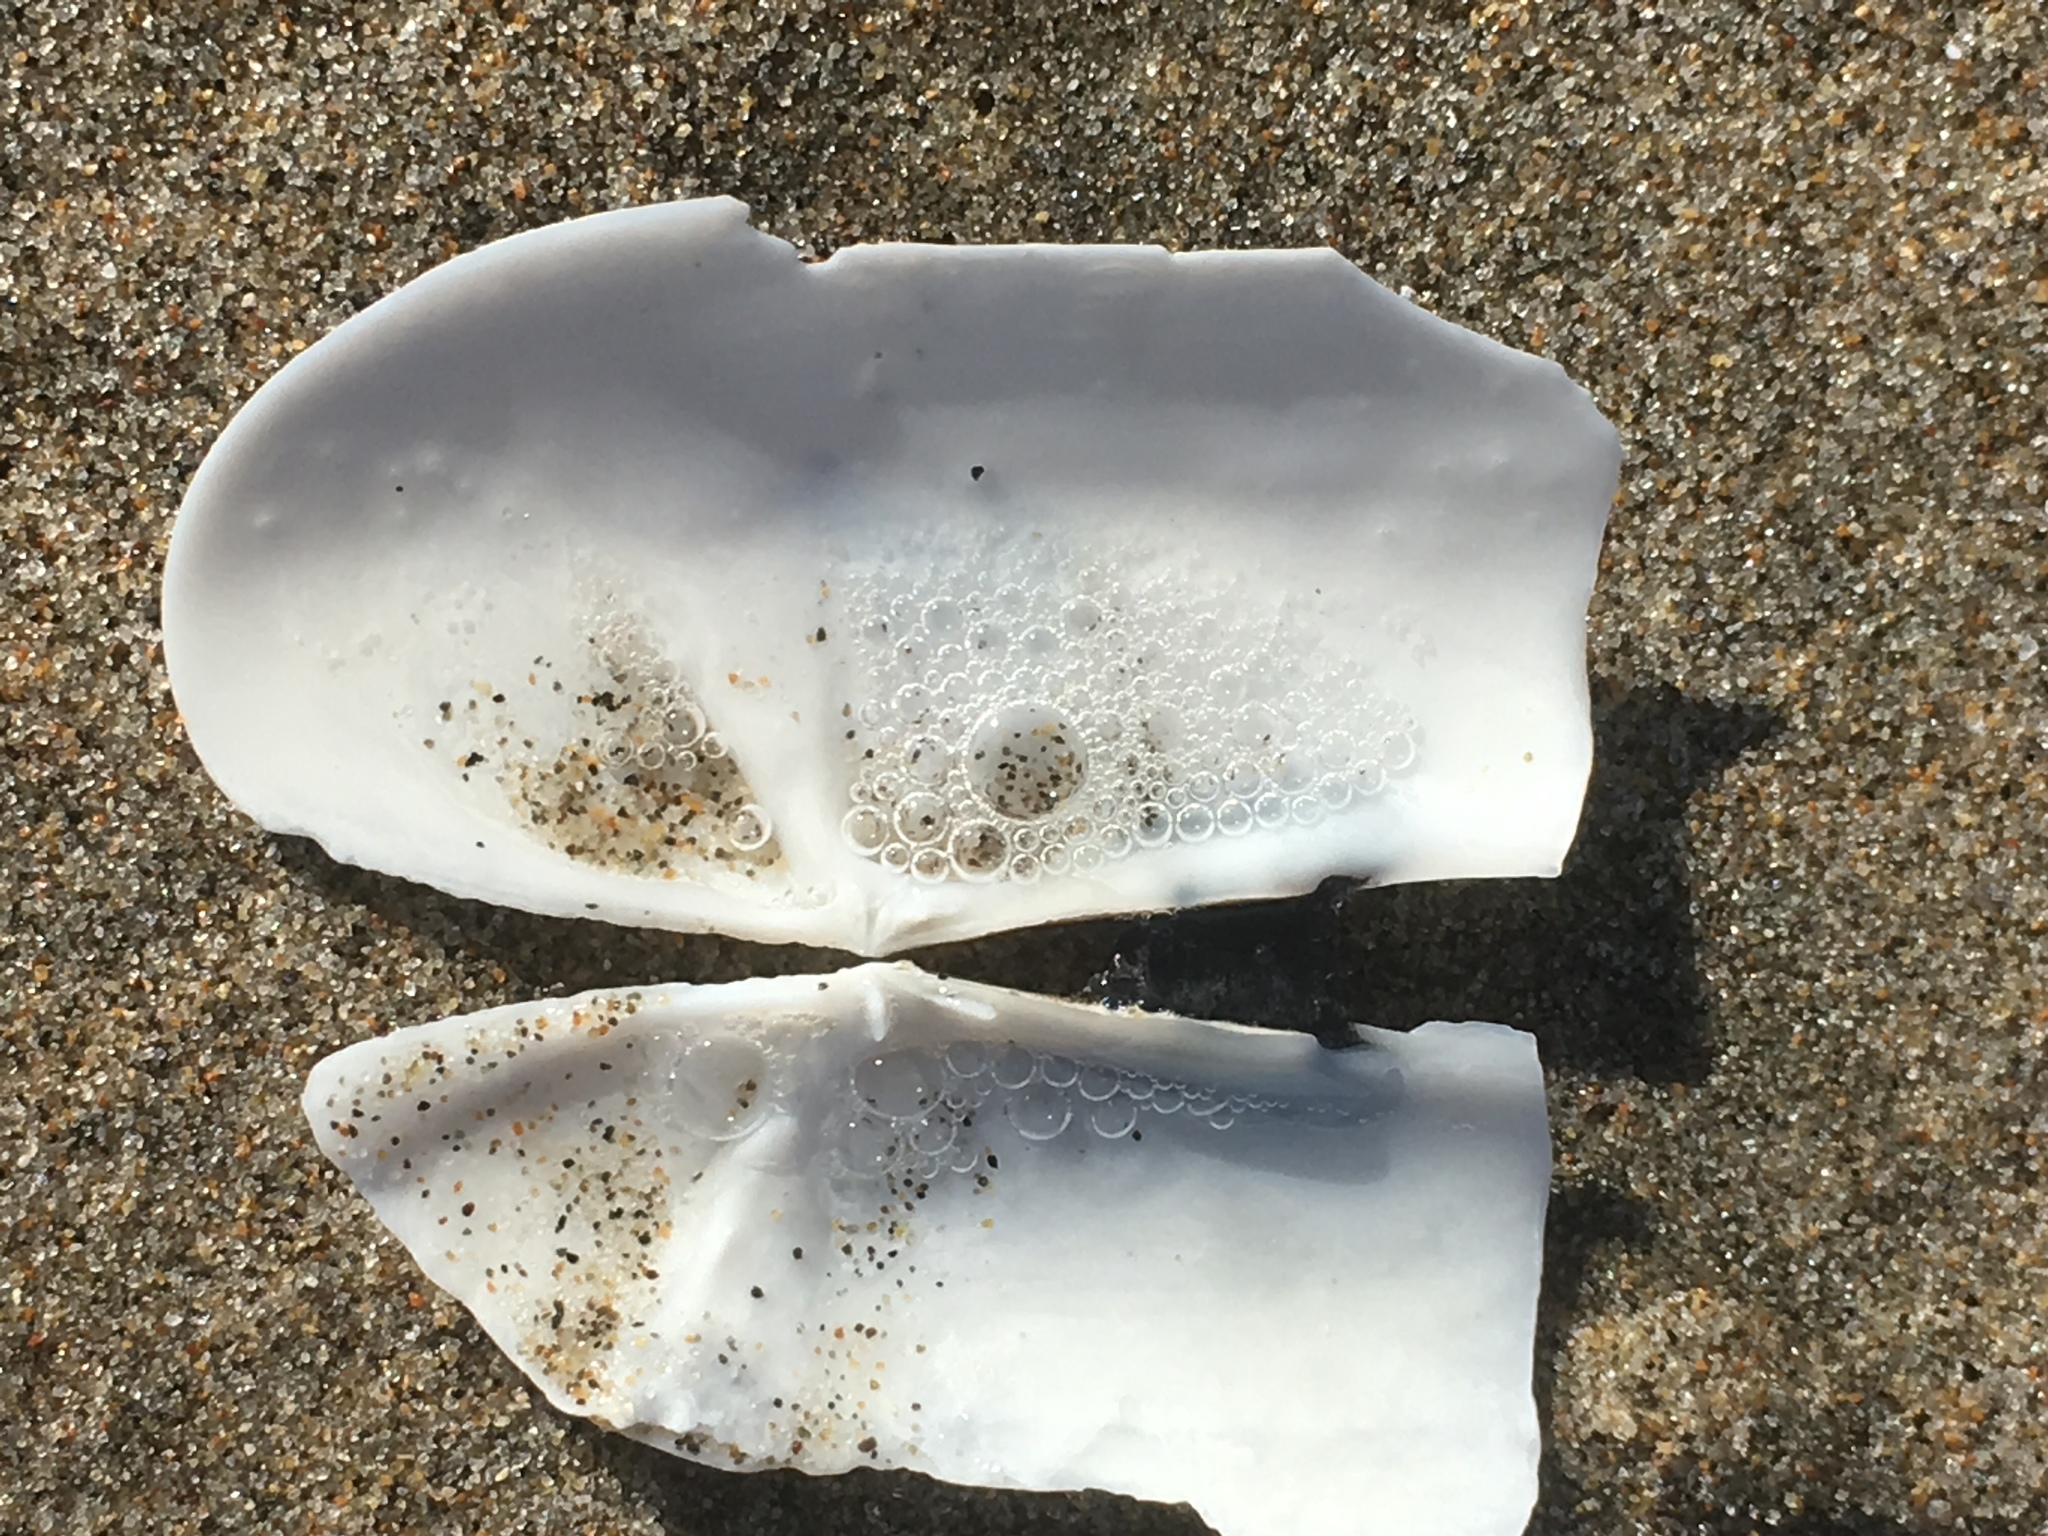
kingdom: Animalia
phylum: Mollusca
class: Bivalvia
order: Adapedonta
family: Pharidae
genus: Siliqua
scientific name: Siliqua patula
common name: Pacific razor clam
